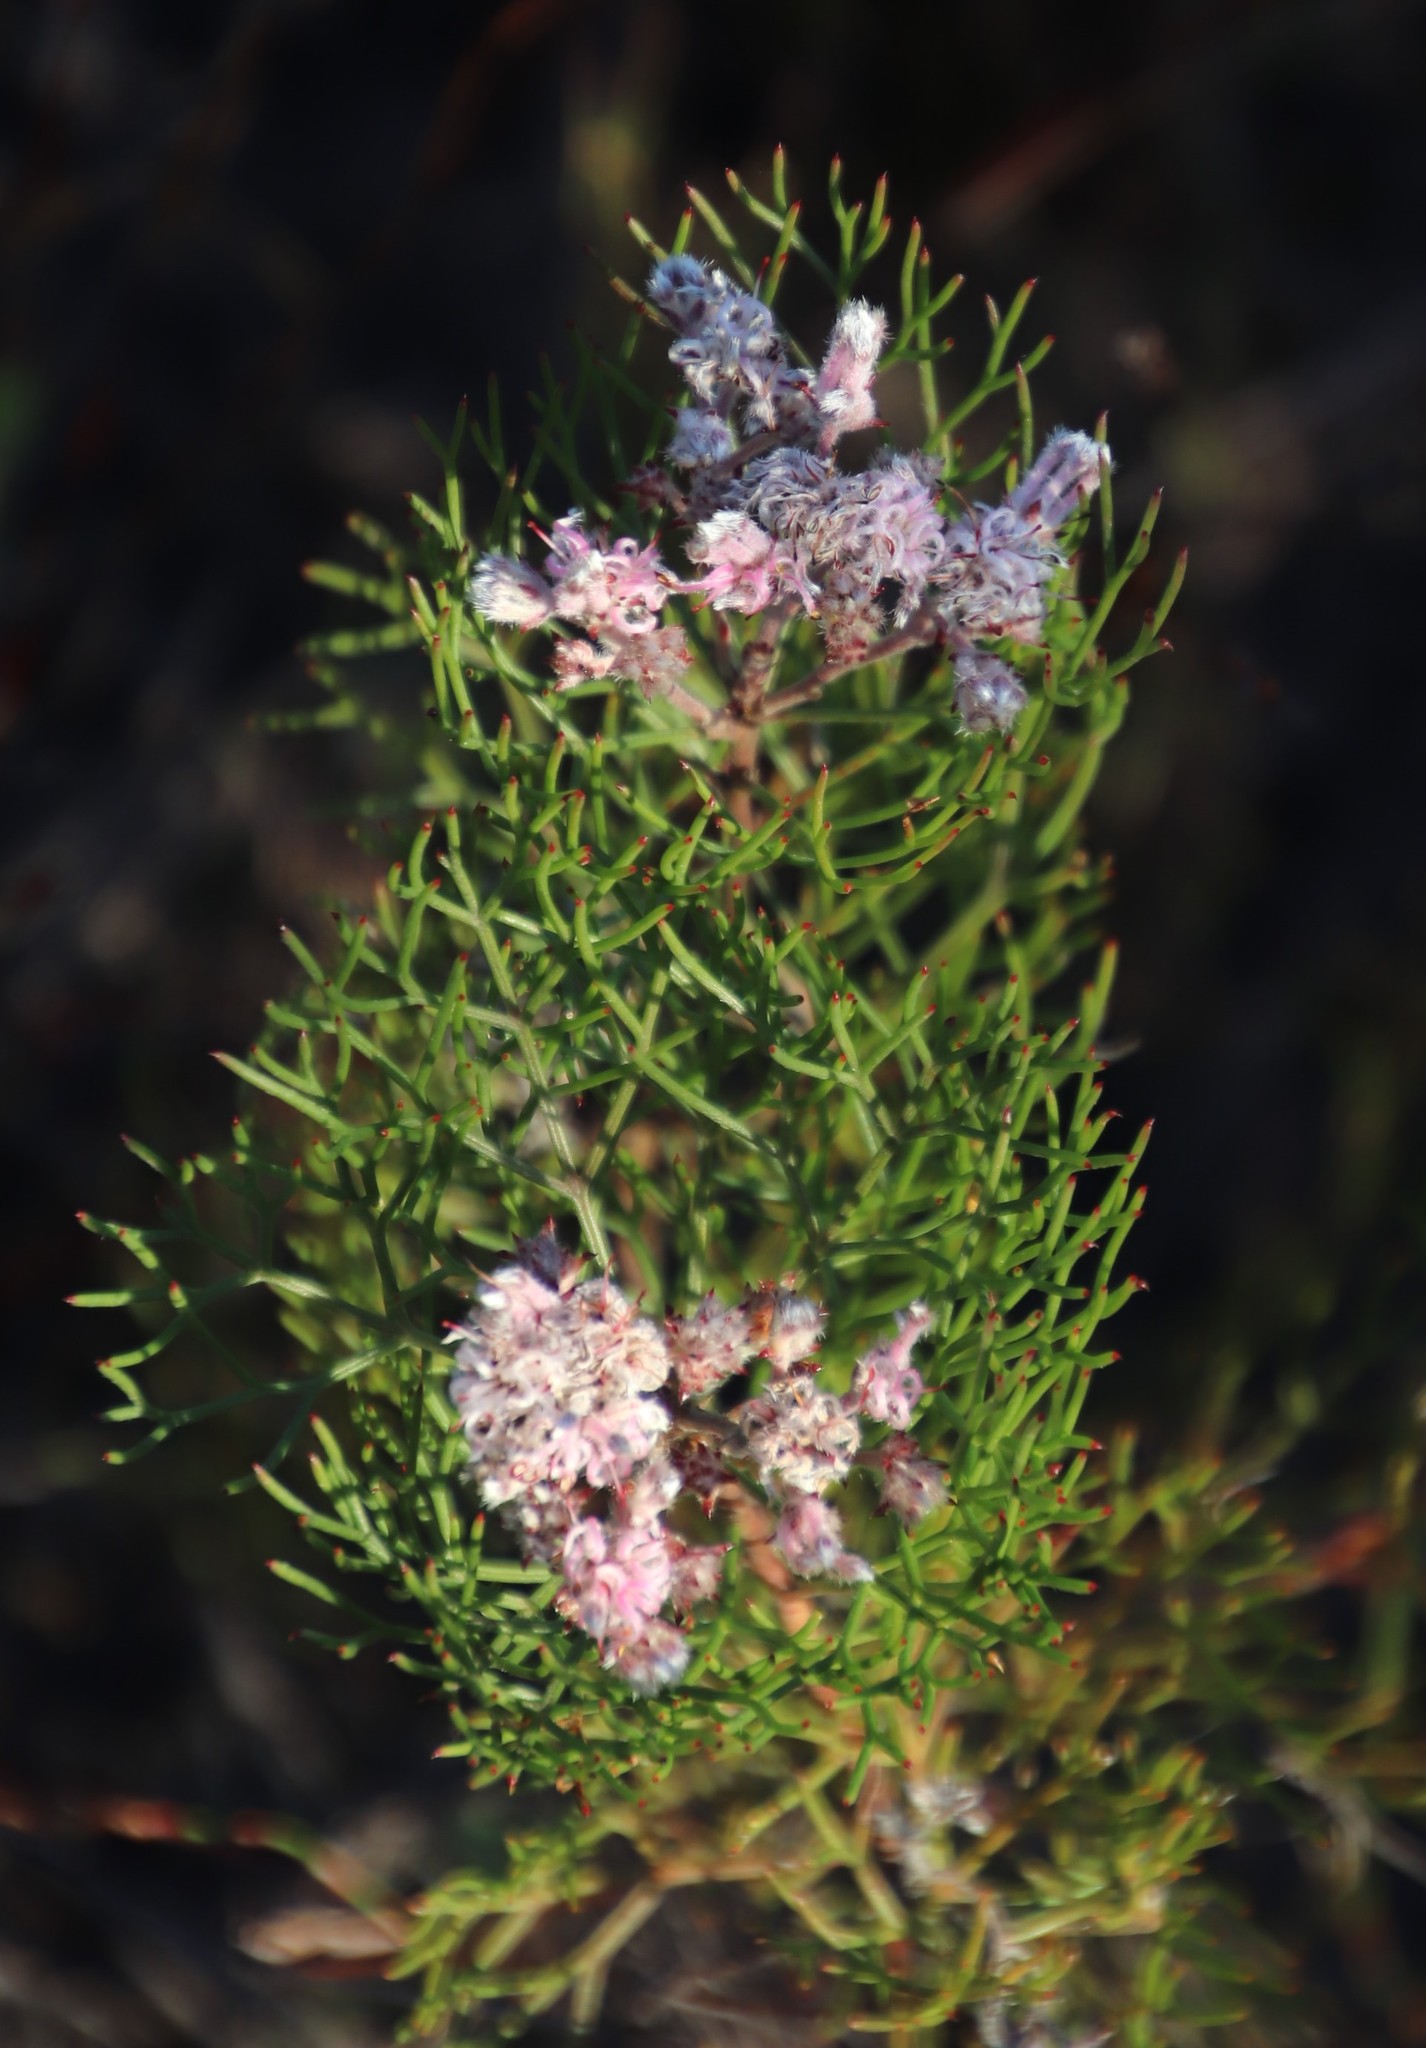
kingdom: Plantae
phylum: Tracheophyta
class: Magnoliopsida
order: Proteales
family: Proteaceae
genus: Serruria
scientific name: Serruria fasciflora
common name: Common pin spiderhead
